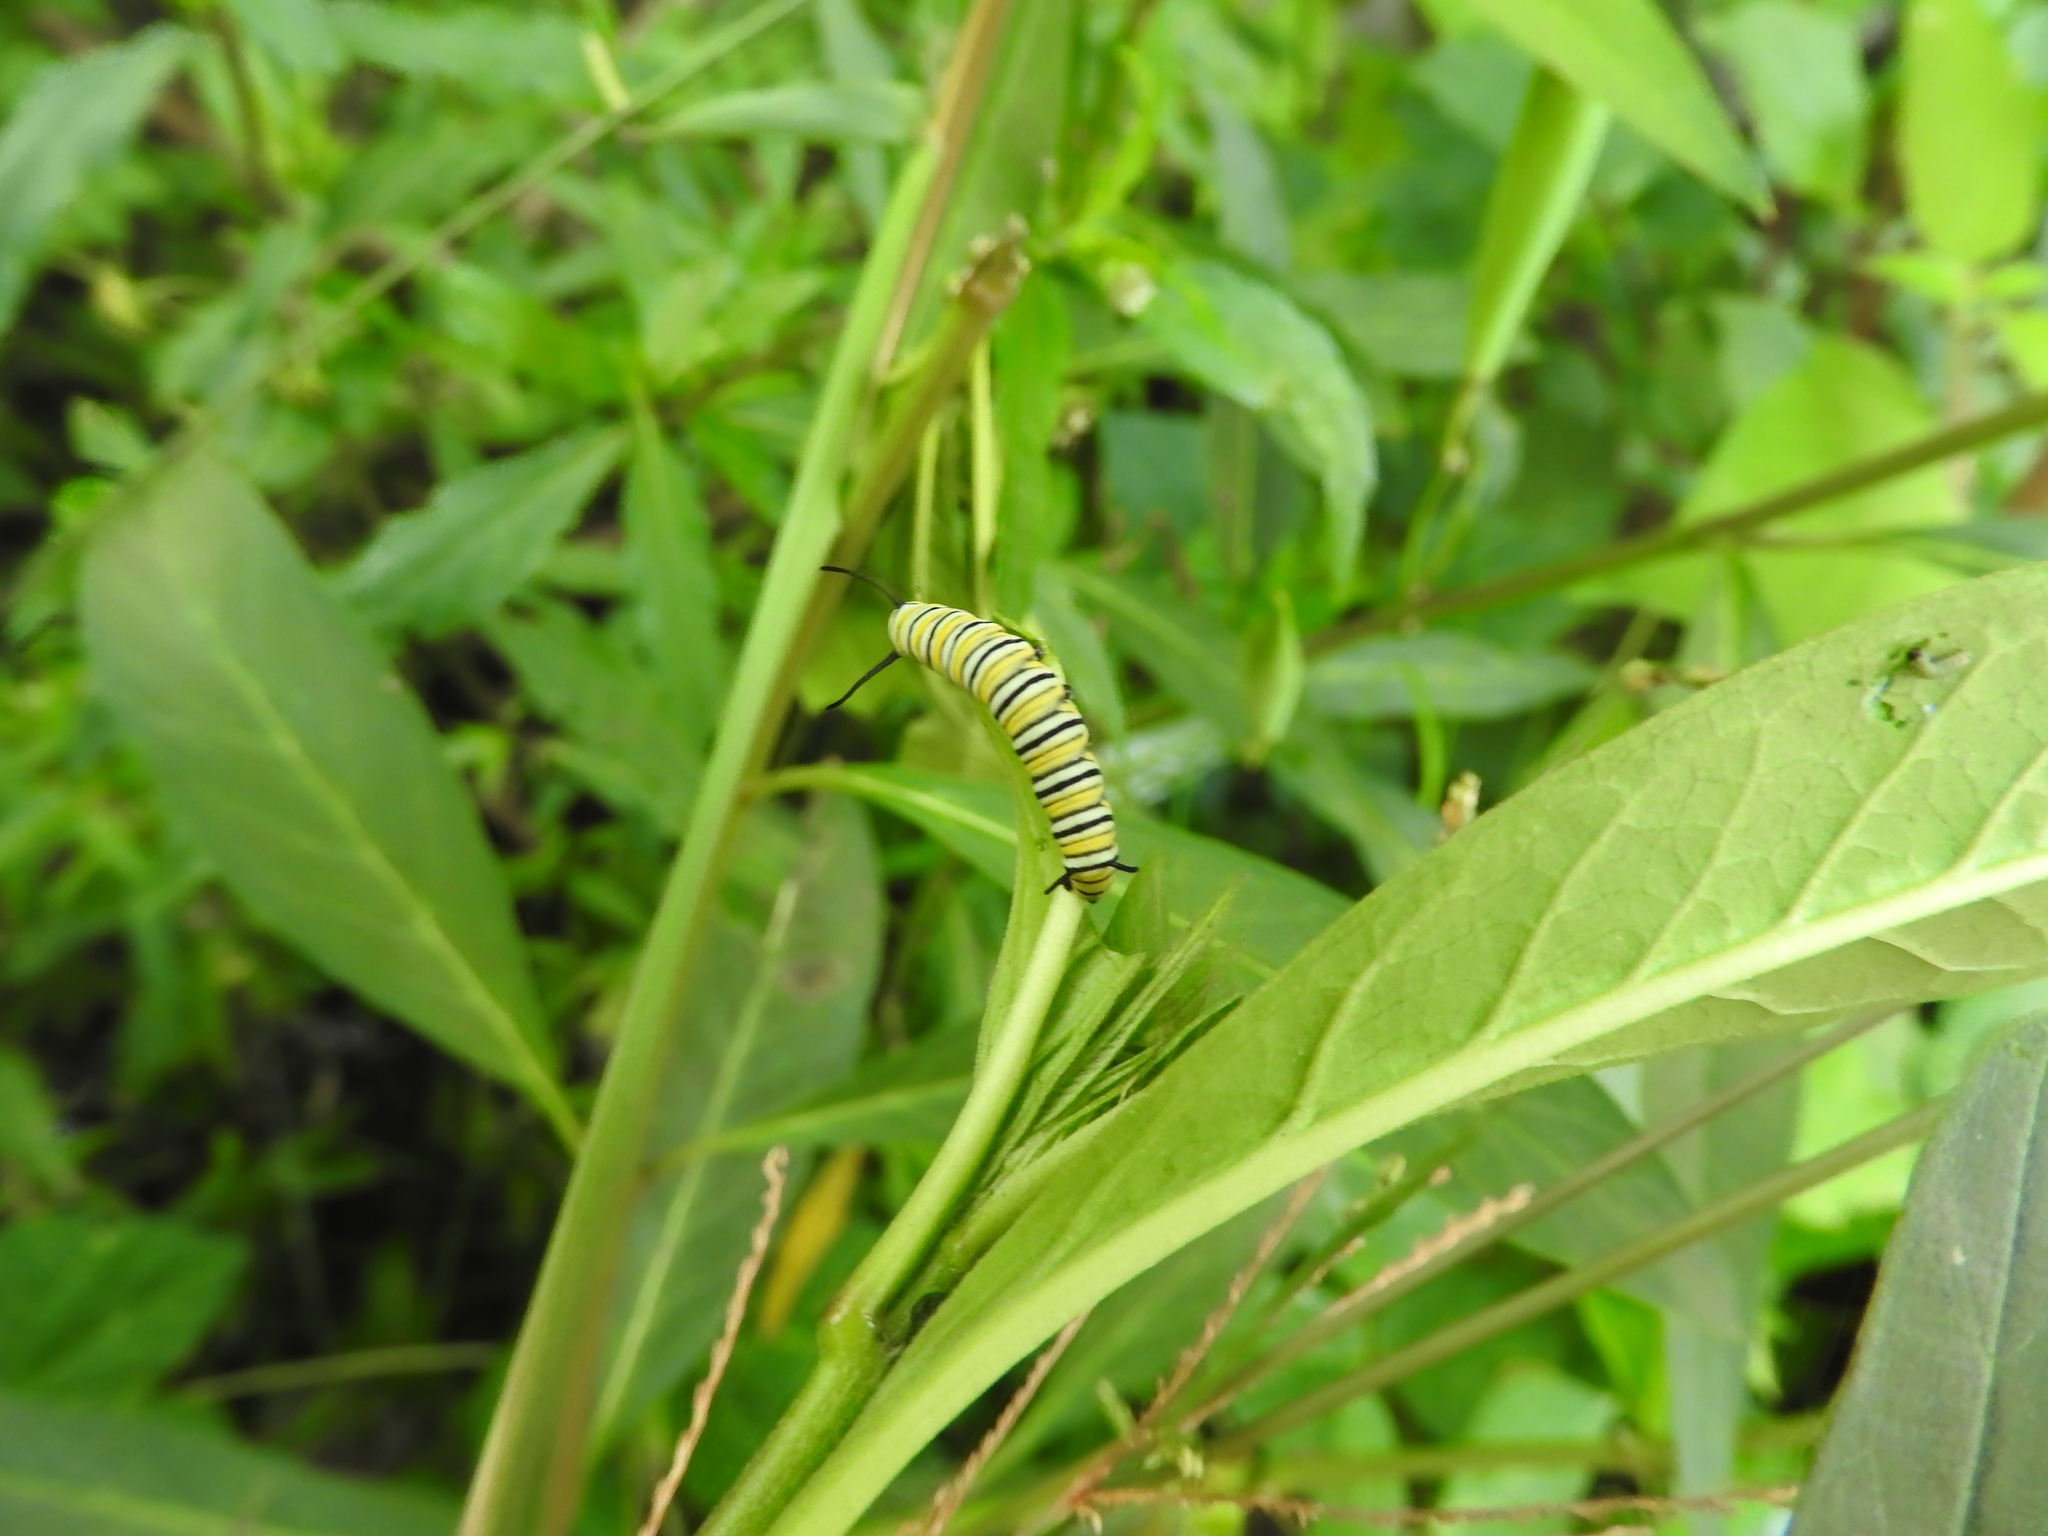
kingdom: Animalia
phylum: Arthropoda
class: Insecta
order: Lepidoptera
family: Nymphalidae
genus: Danaus
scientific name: Danaus plexippus
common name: Monarch
